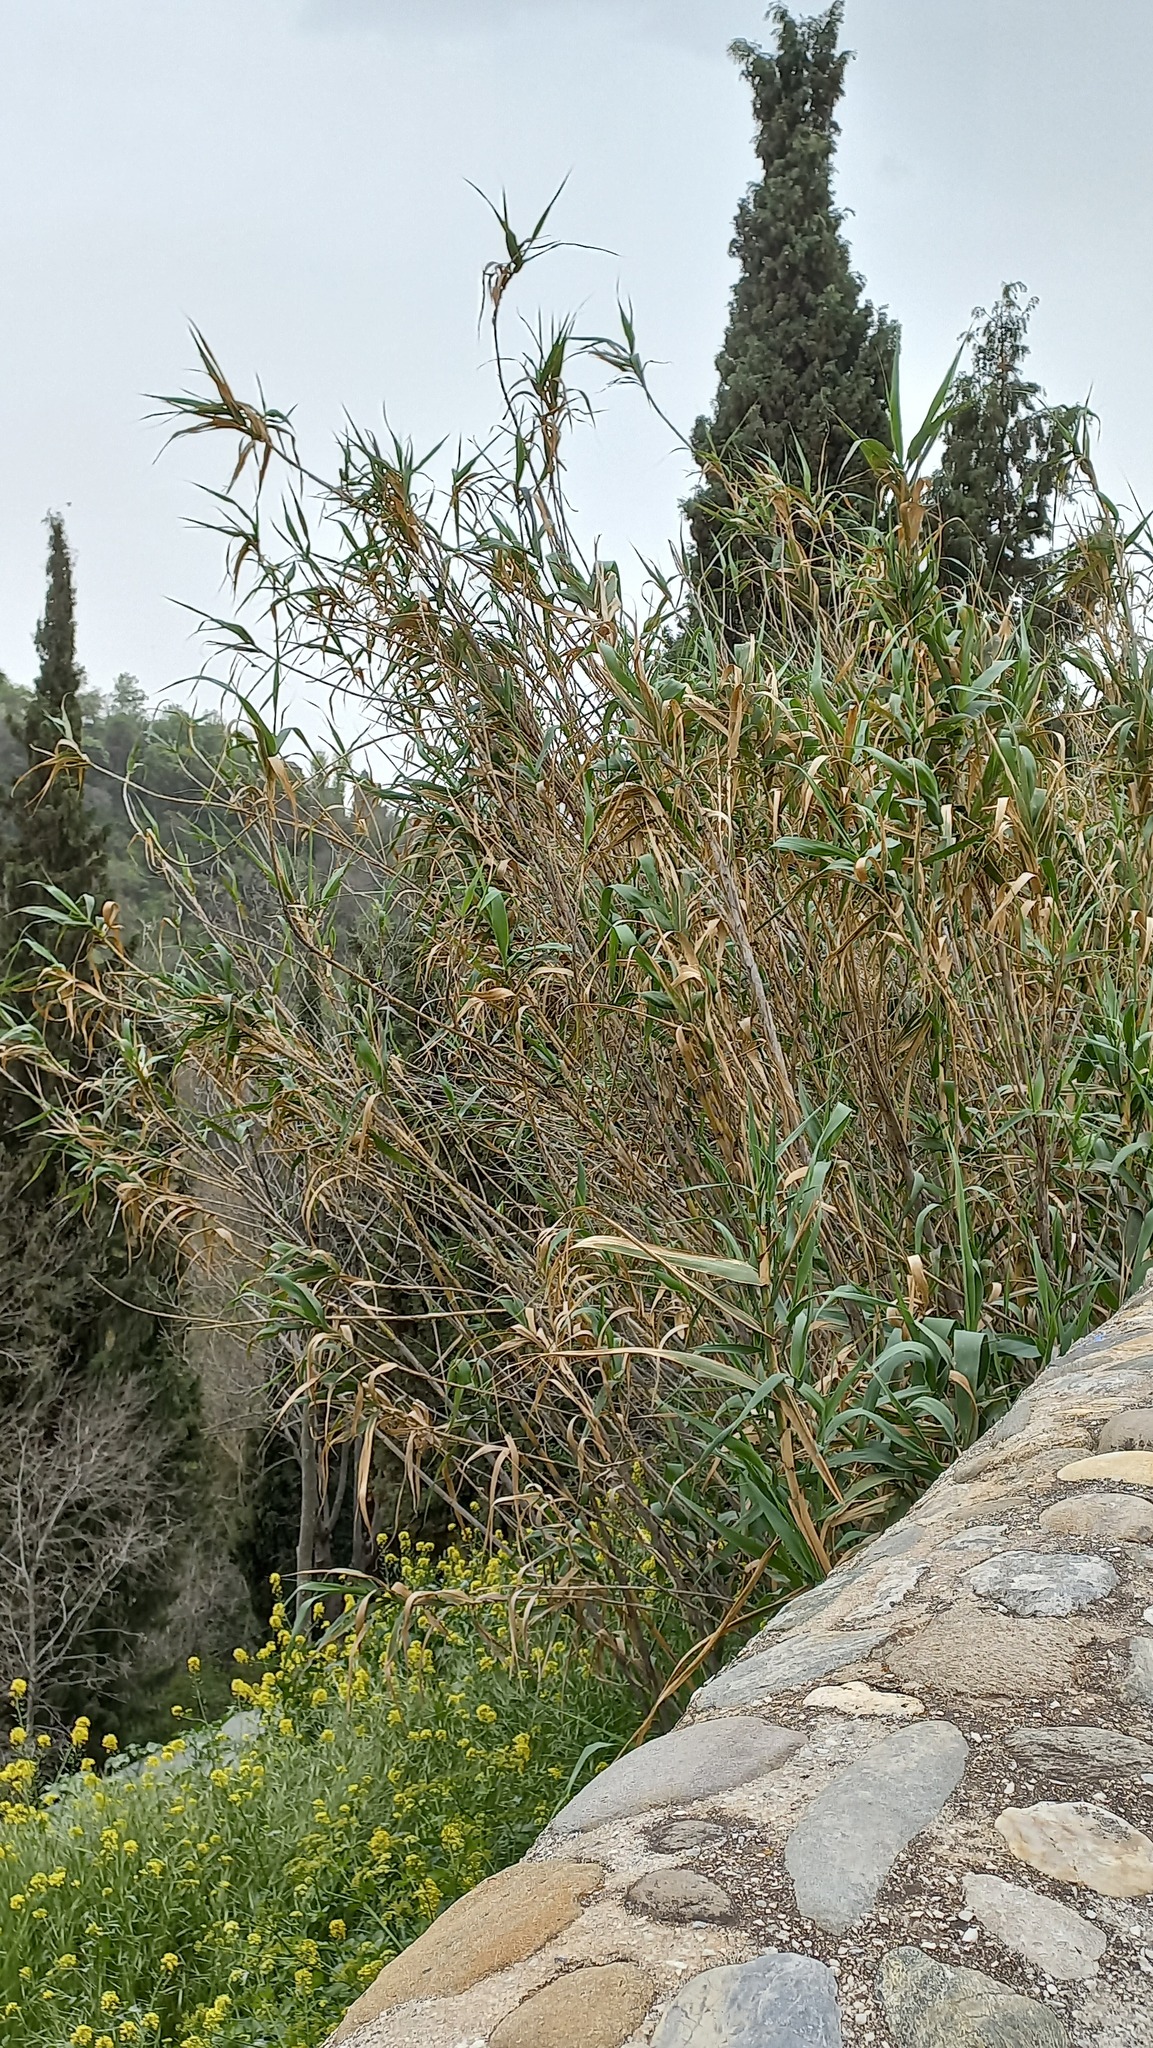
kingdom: Plantae
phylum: Tracheophyta
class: Liliopsida
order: Poales
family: Poaceae
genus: Arundo
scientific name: Arundo donax
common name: Giant reed
